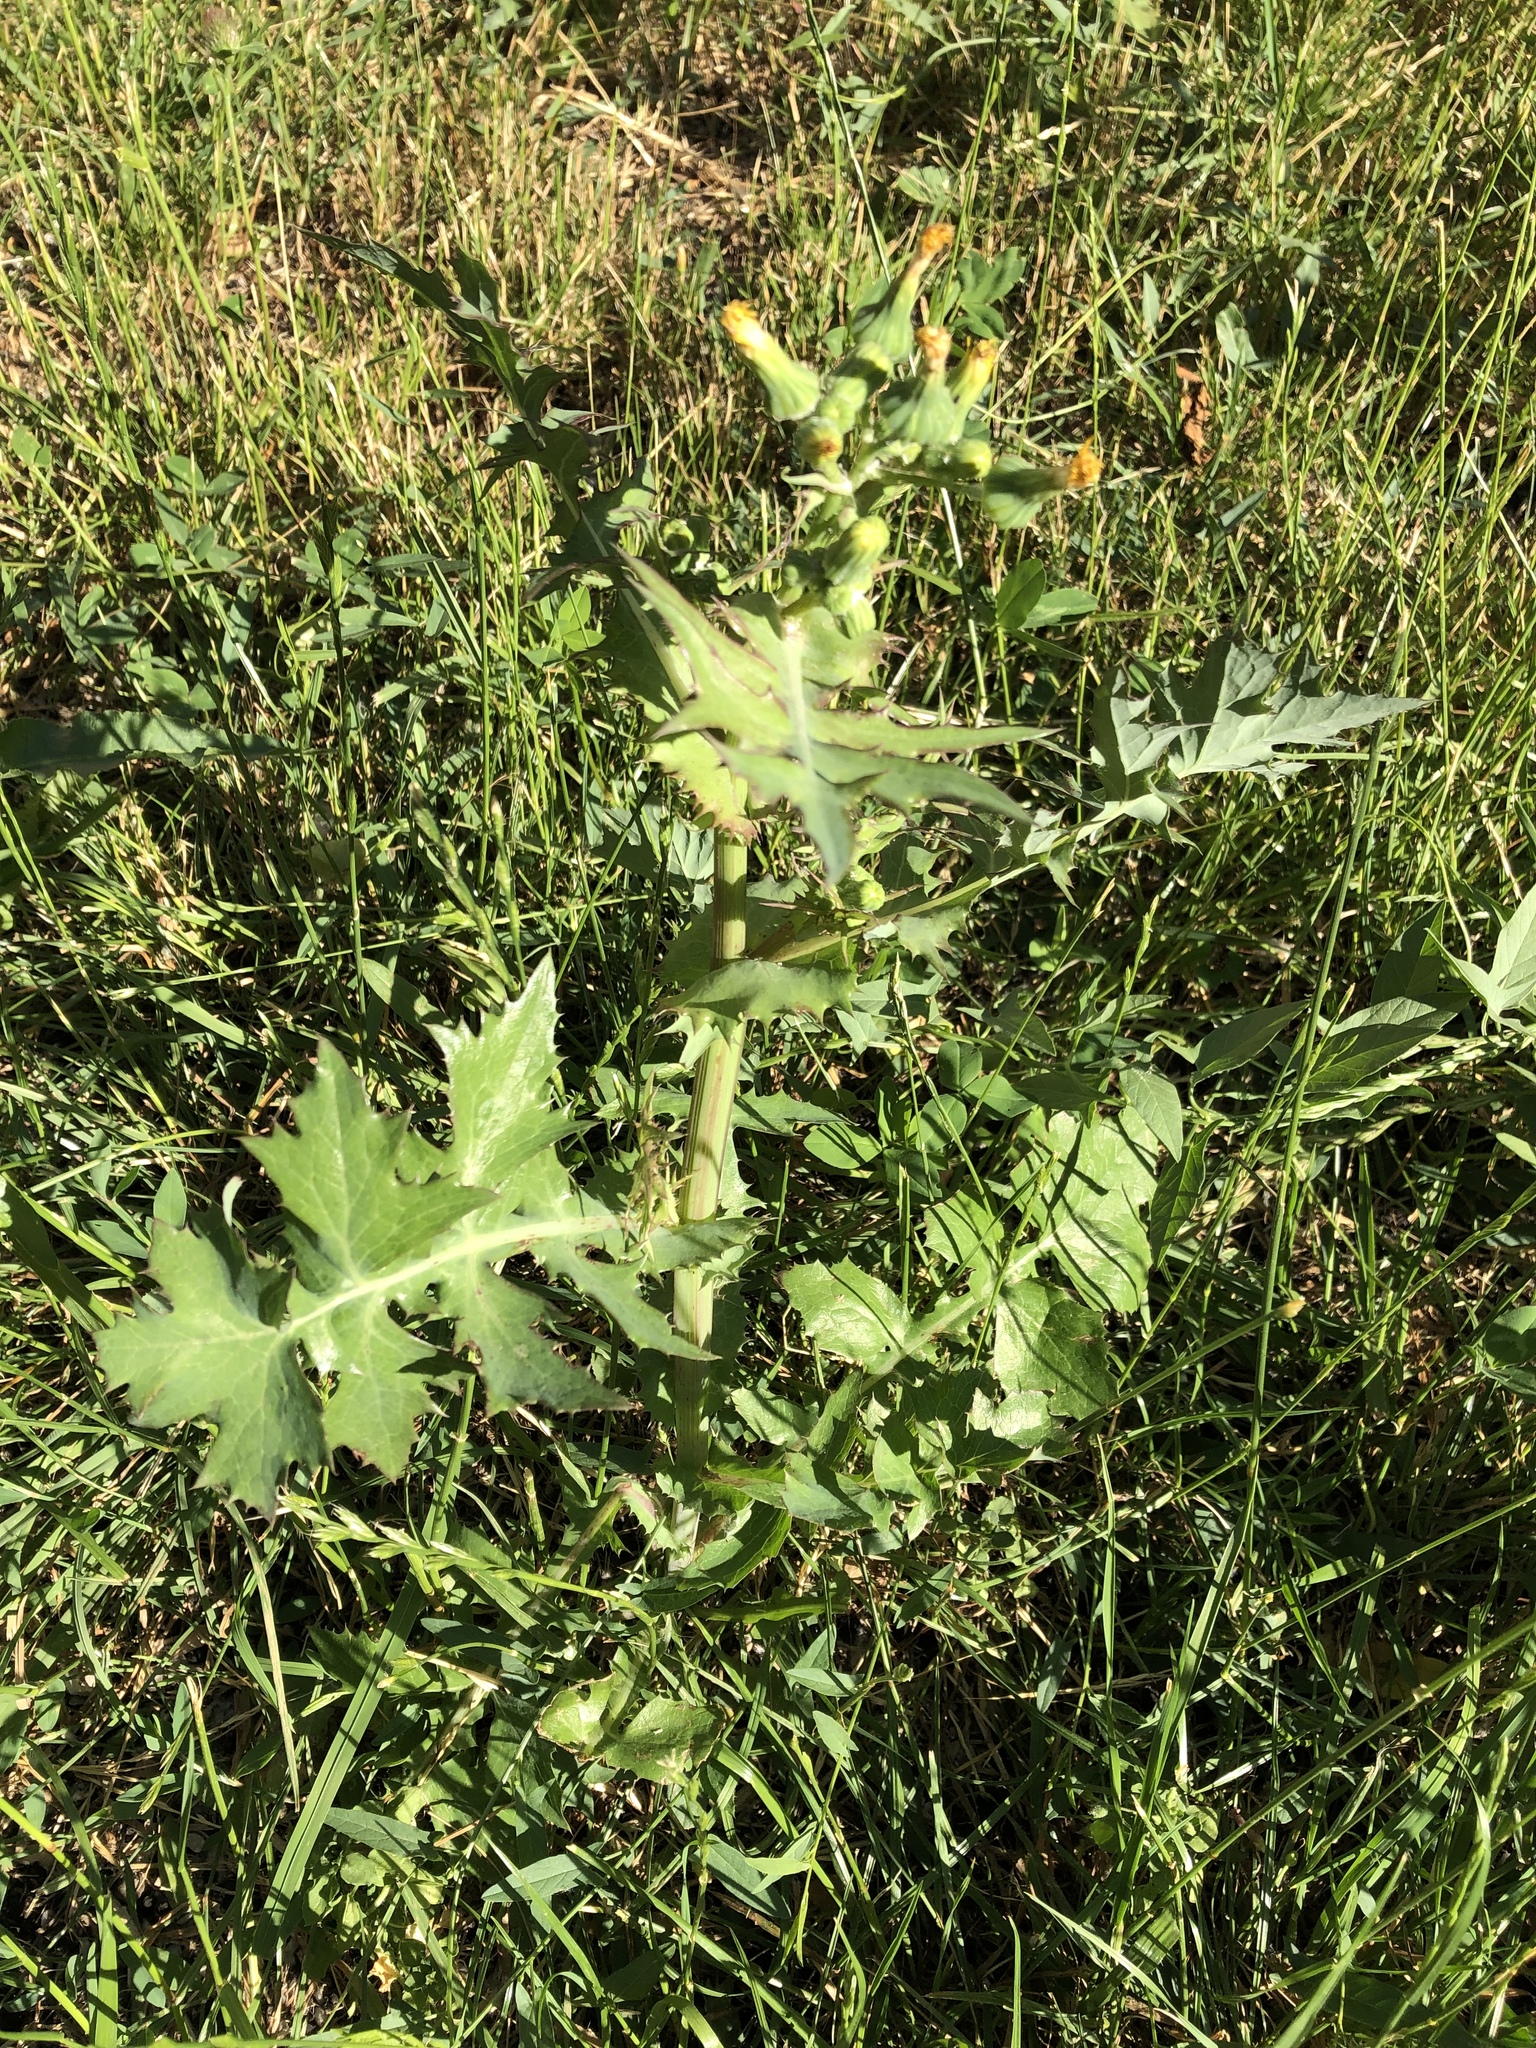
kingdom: Plantae
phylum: Tracheophyta
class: Magnoliopsida
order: Asterales
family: Asteraceae
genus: Sonchus
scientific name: Sonchus asper
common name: Prickly sow-thistle
